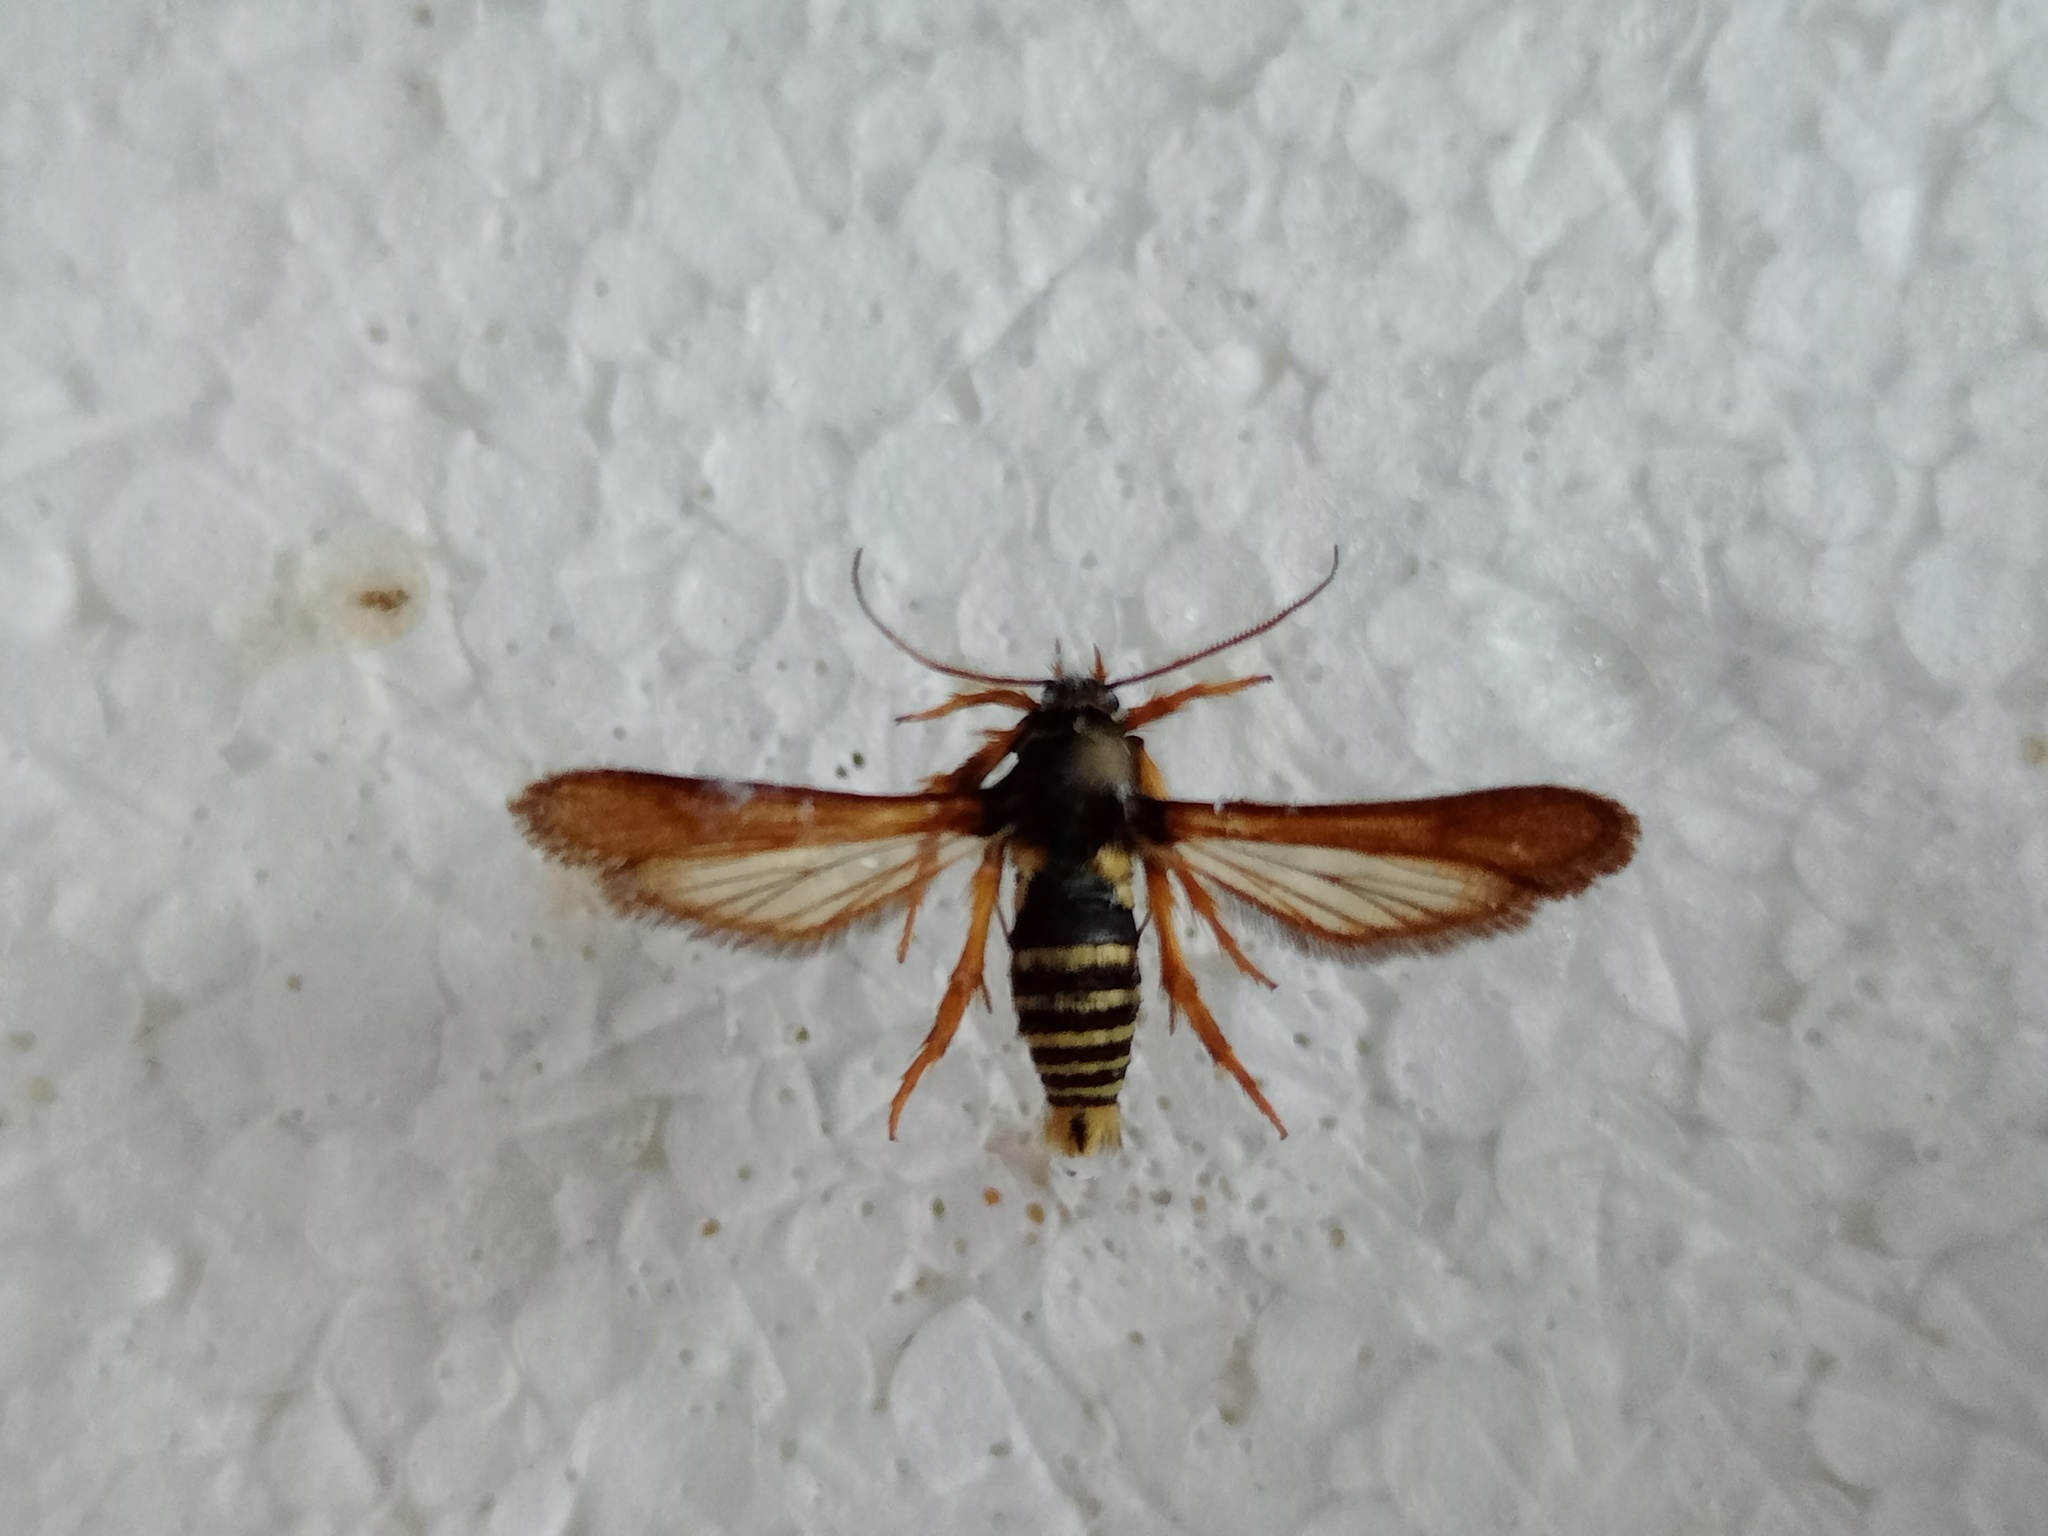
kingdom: Animalia
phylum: Arthropoda
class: Insecta
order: Lepidoptera
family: Sesiidae
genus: Negotinthia
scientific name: Negotinthia hoplisiformis
